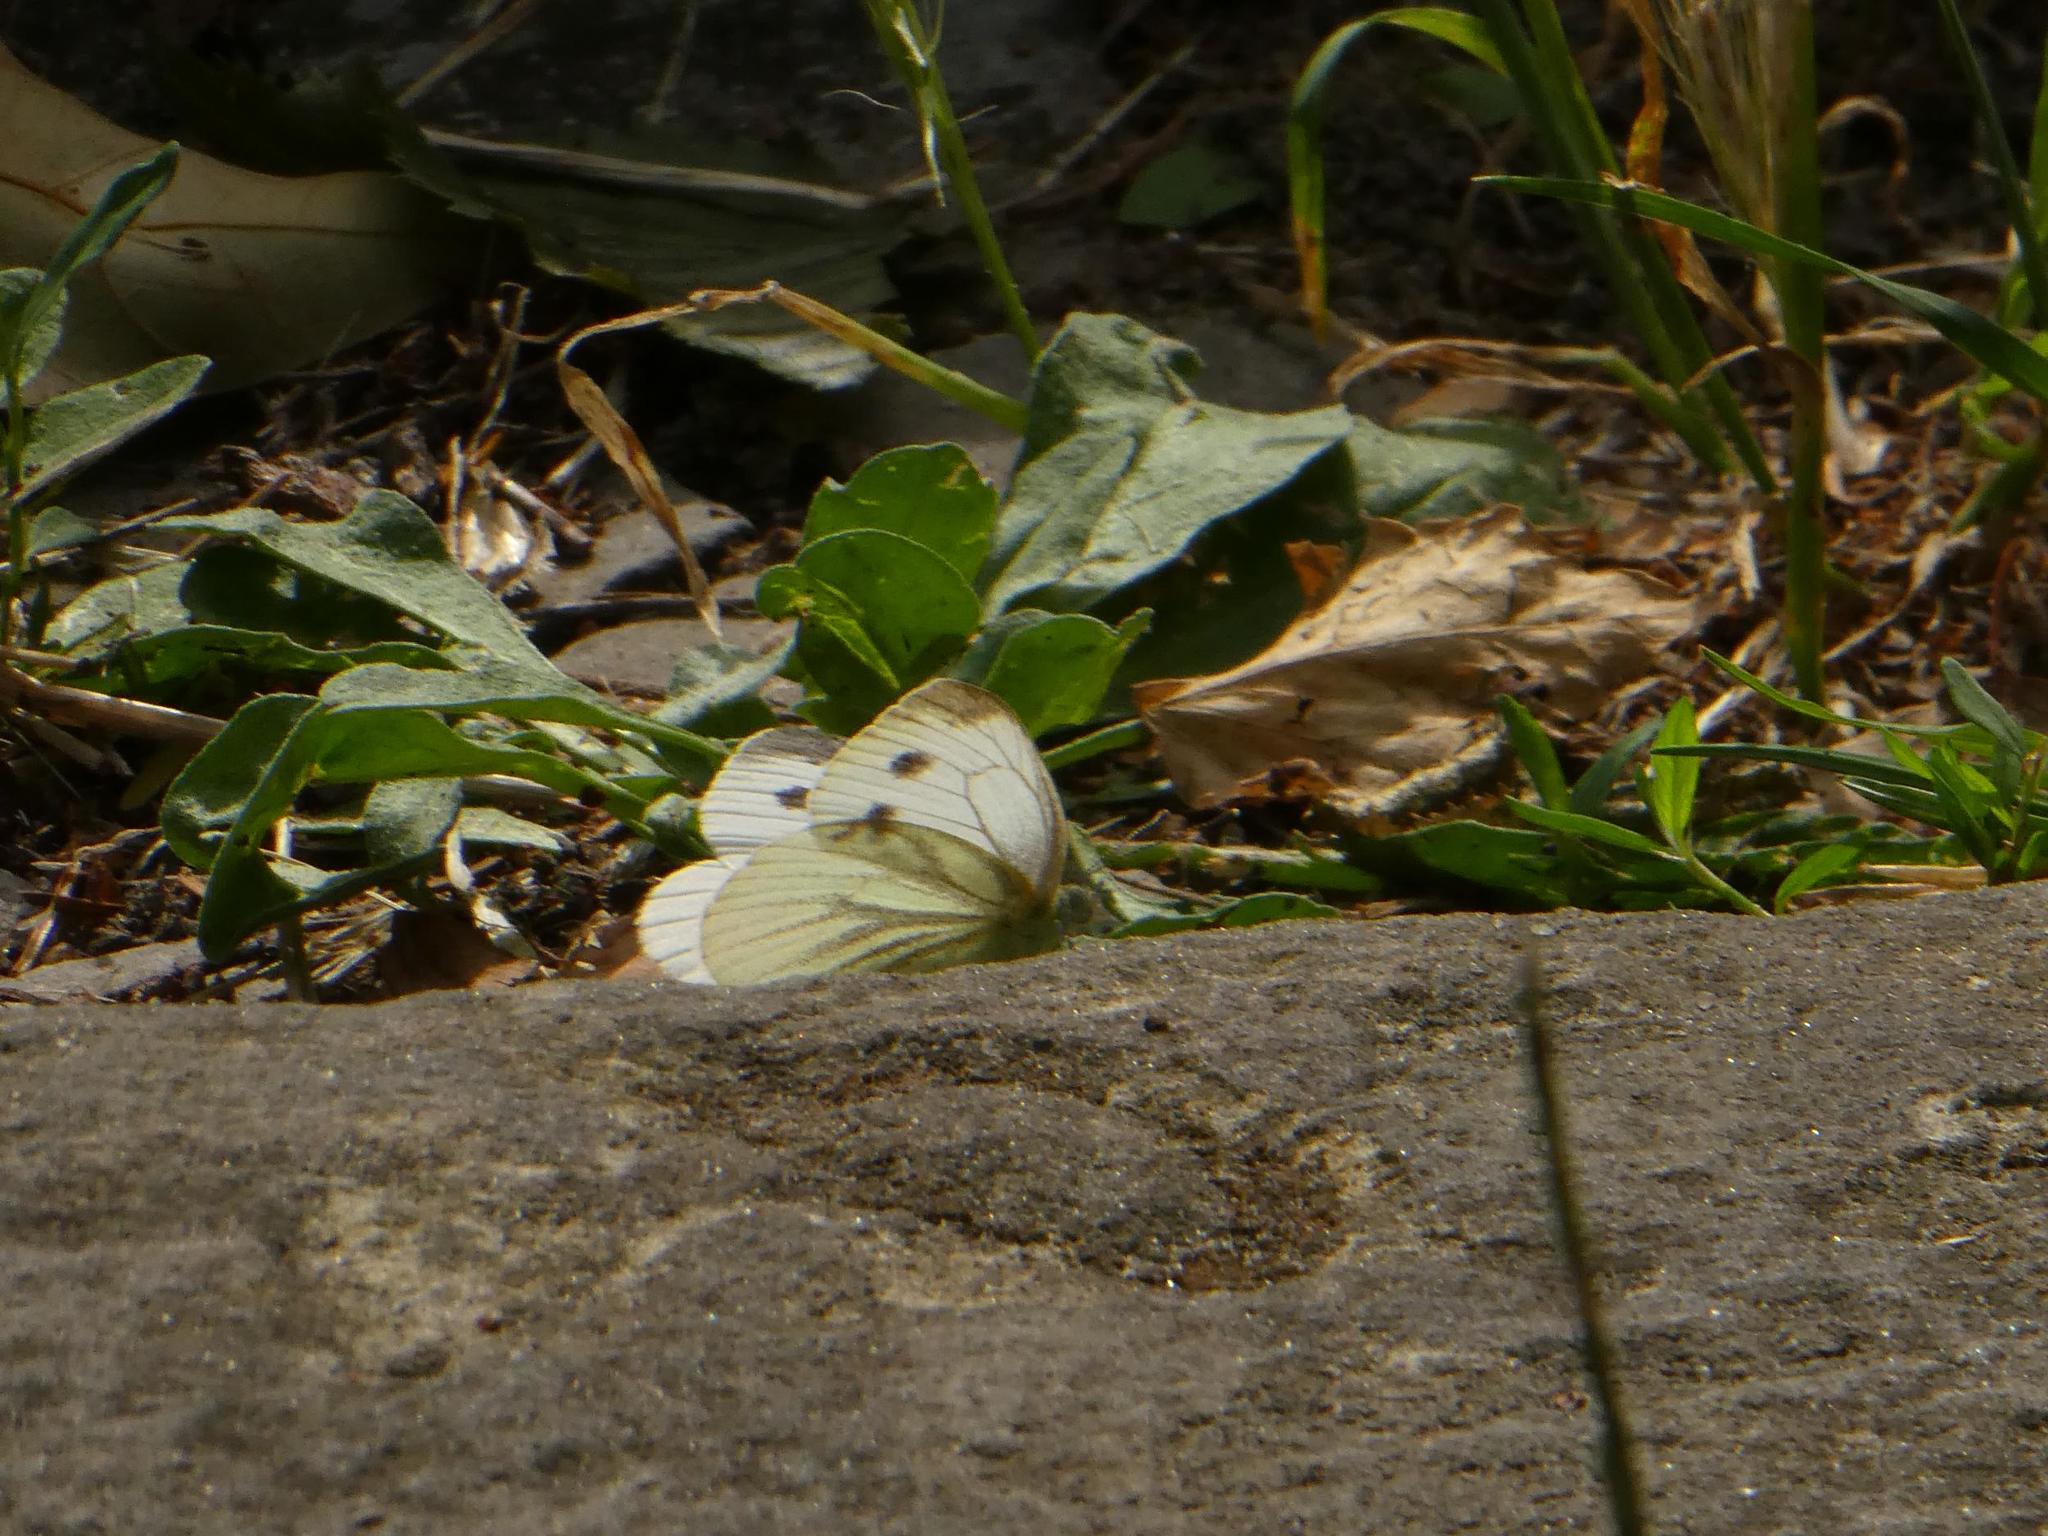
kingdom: Animalia
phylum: Arthropoda
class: Insecta
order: Lepidoptera
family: Pieridae
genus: Pieris
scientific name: Pieris napi
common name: Green-veined white
